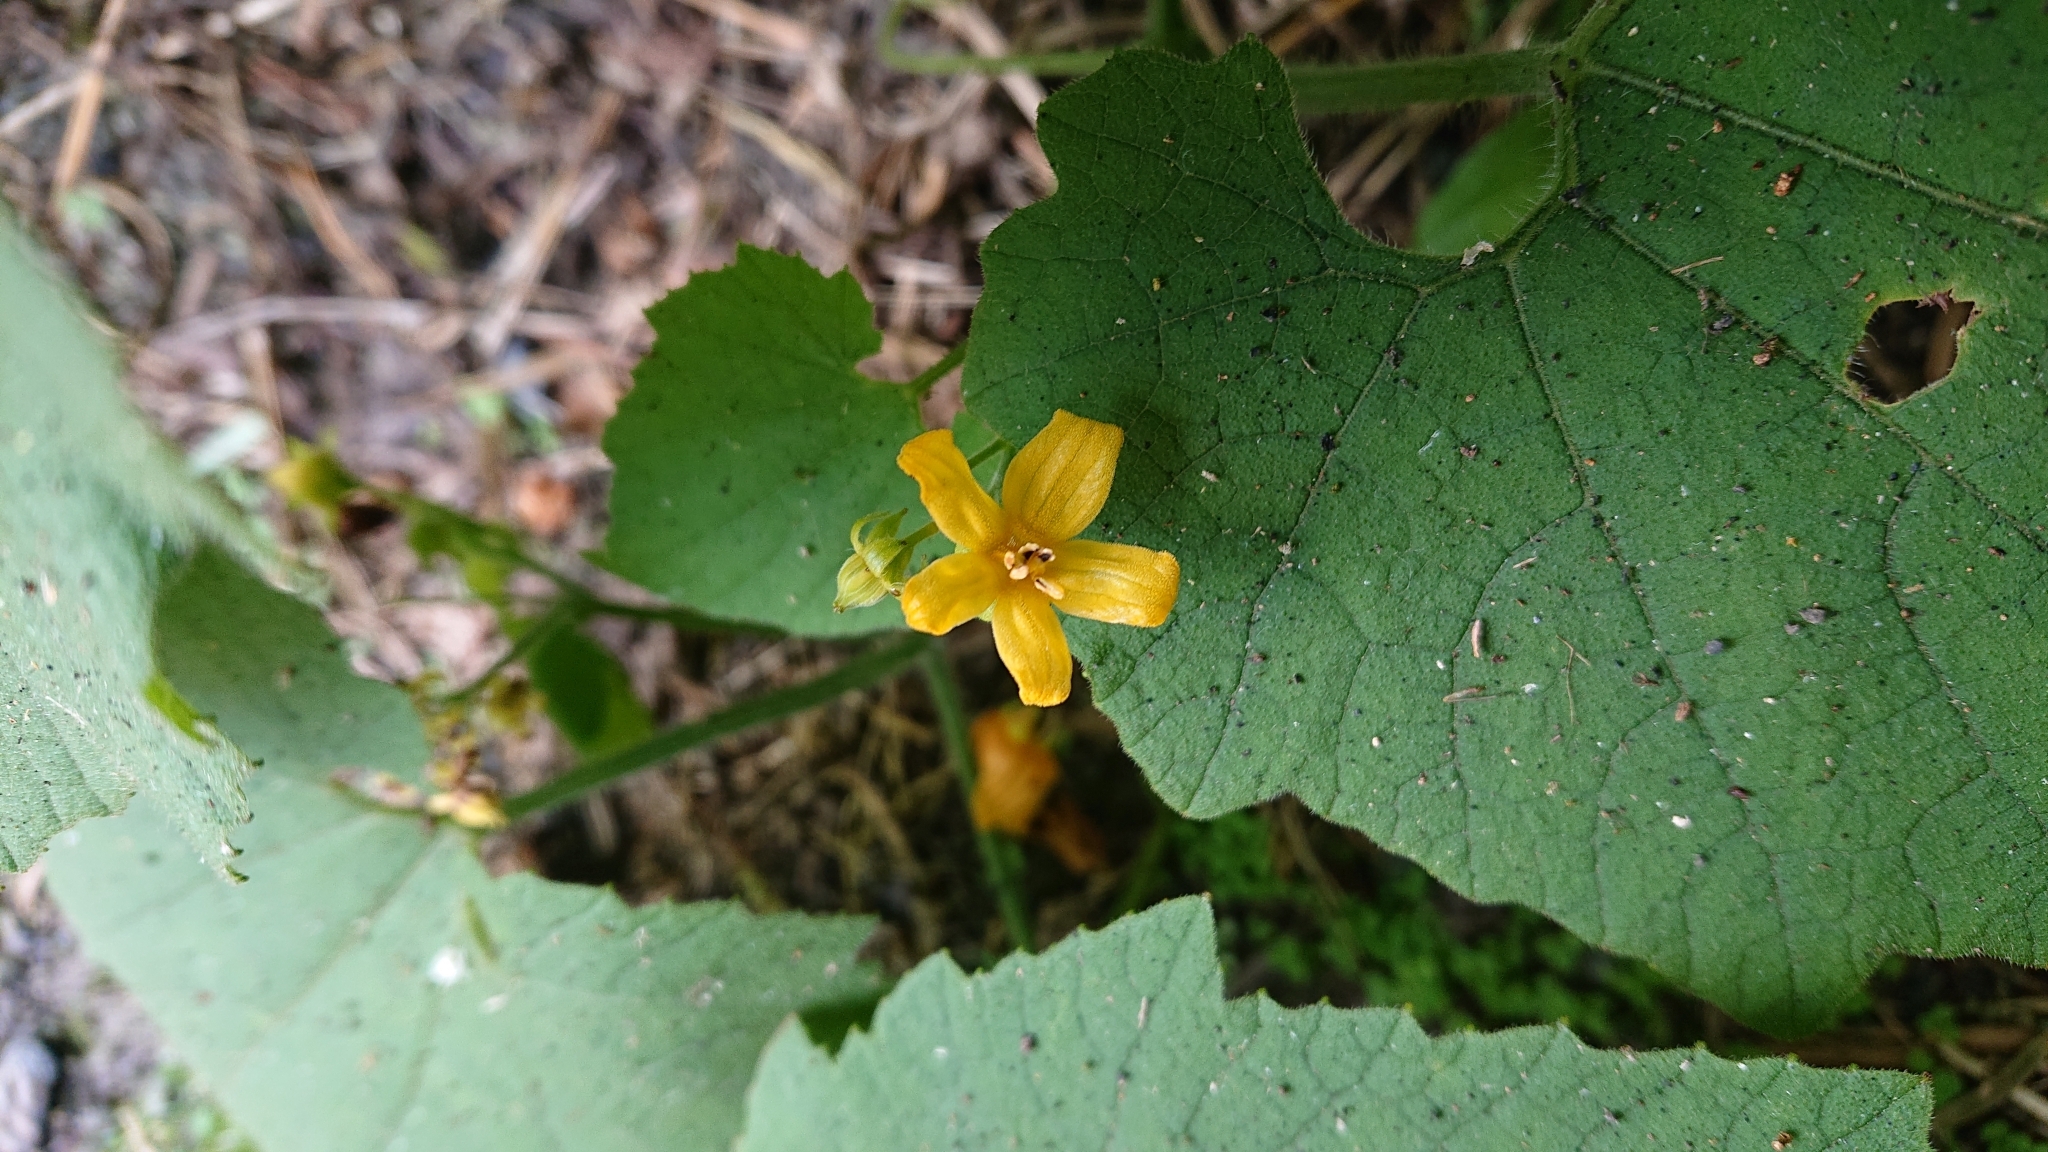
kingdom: Plantae
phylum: Tracheophyta
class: Magnoliopsida
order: Cucurbitales
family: Cucurbitaceae
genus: Thladiantha
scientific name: Thladiantha nudiflora
